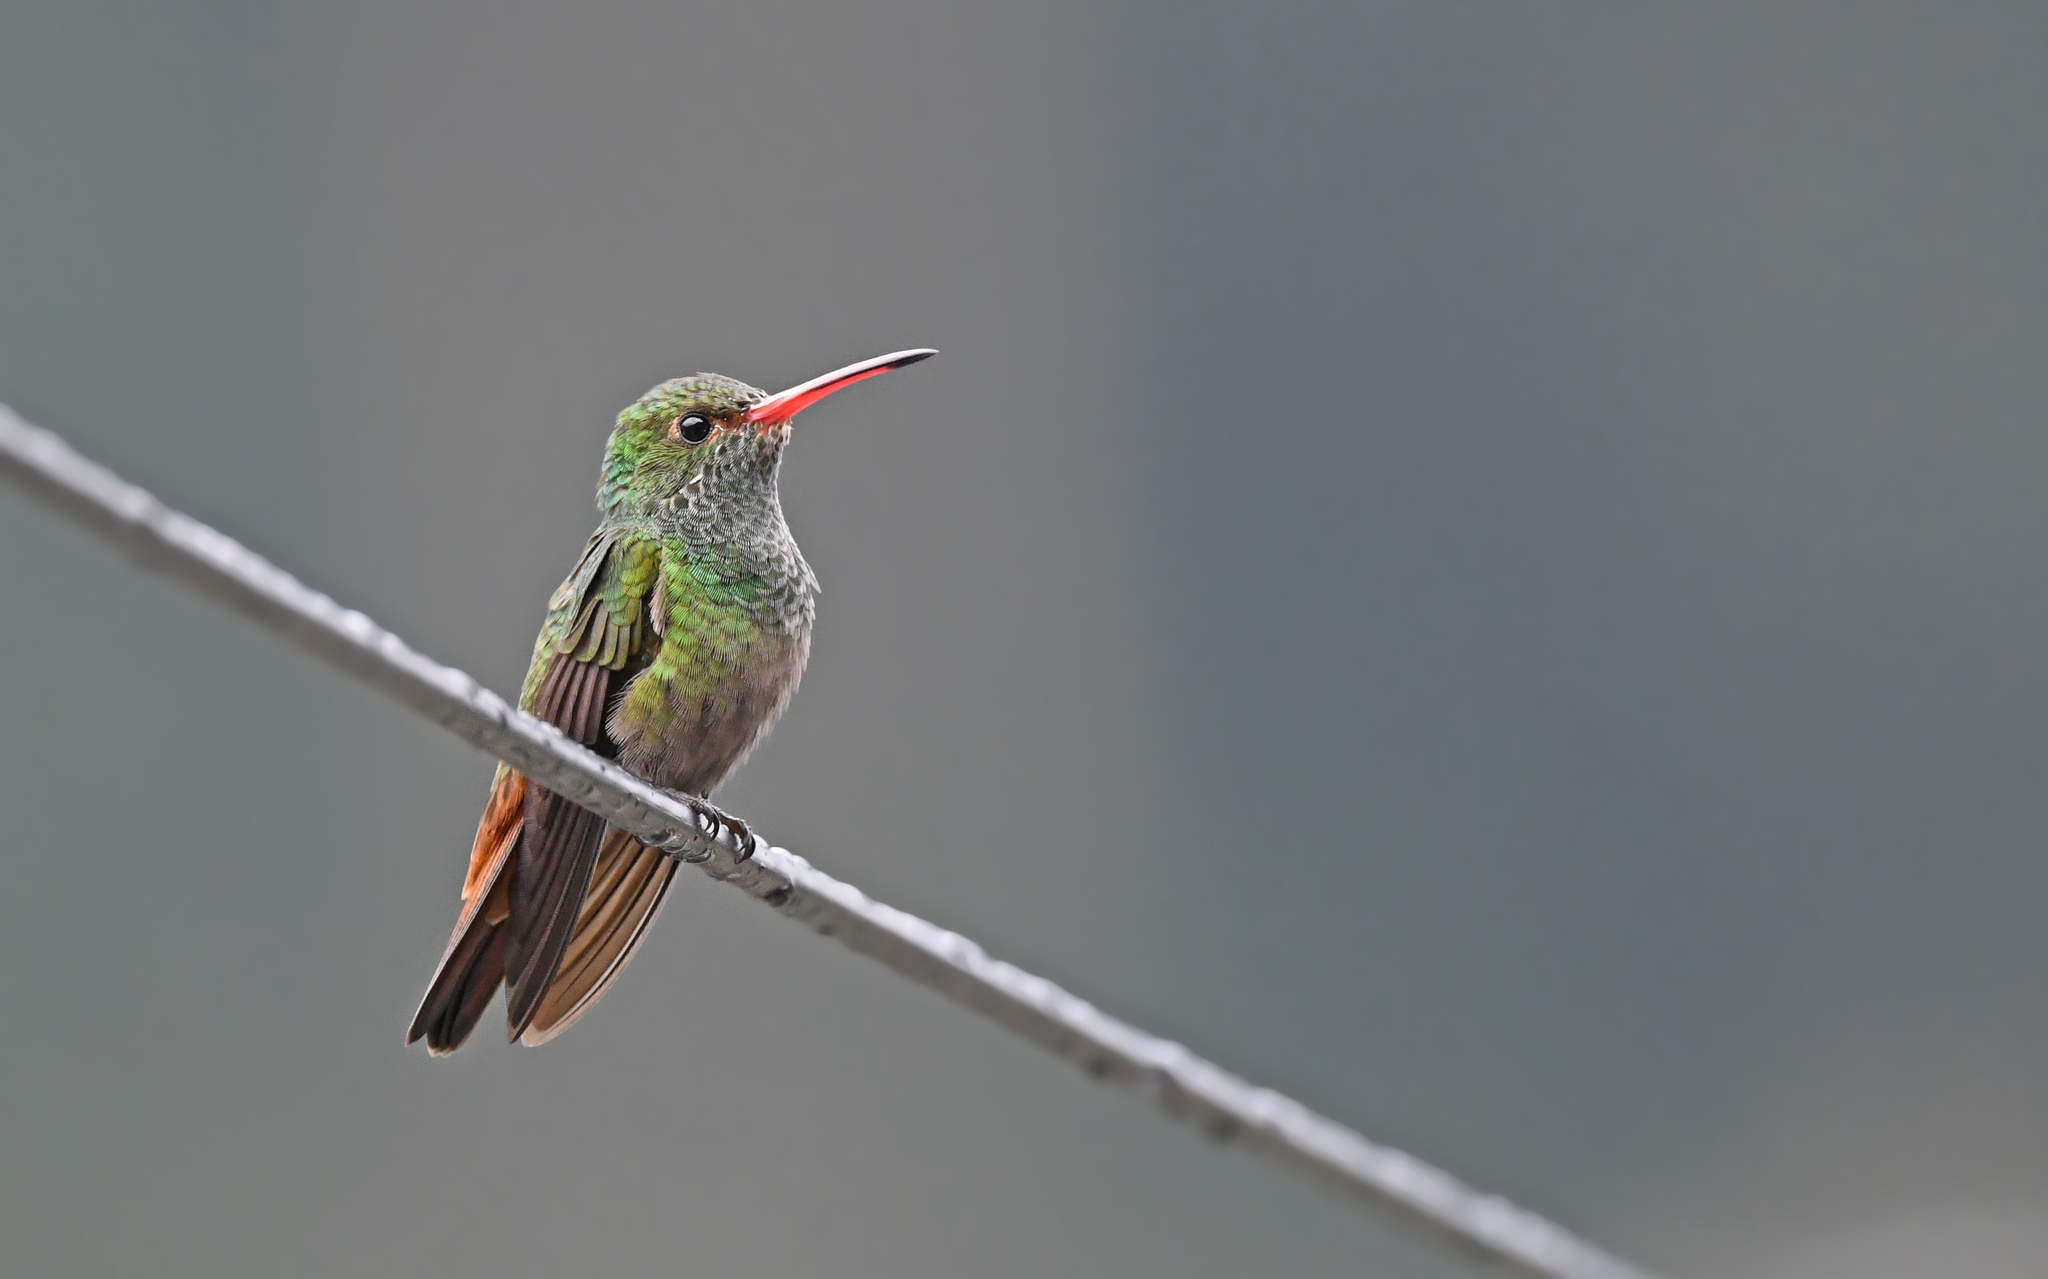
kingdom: Animalia
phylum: Chordata
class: Aves
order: Apodiformes
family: Trochilidae
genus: Amazilia
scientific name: Amazilia tzacatl
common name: Rufous-tailed hummingbird
